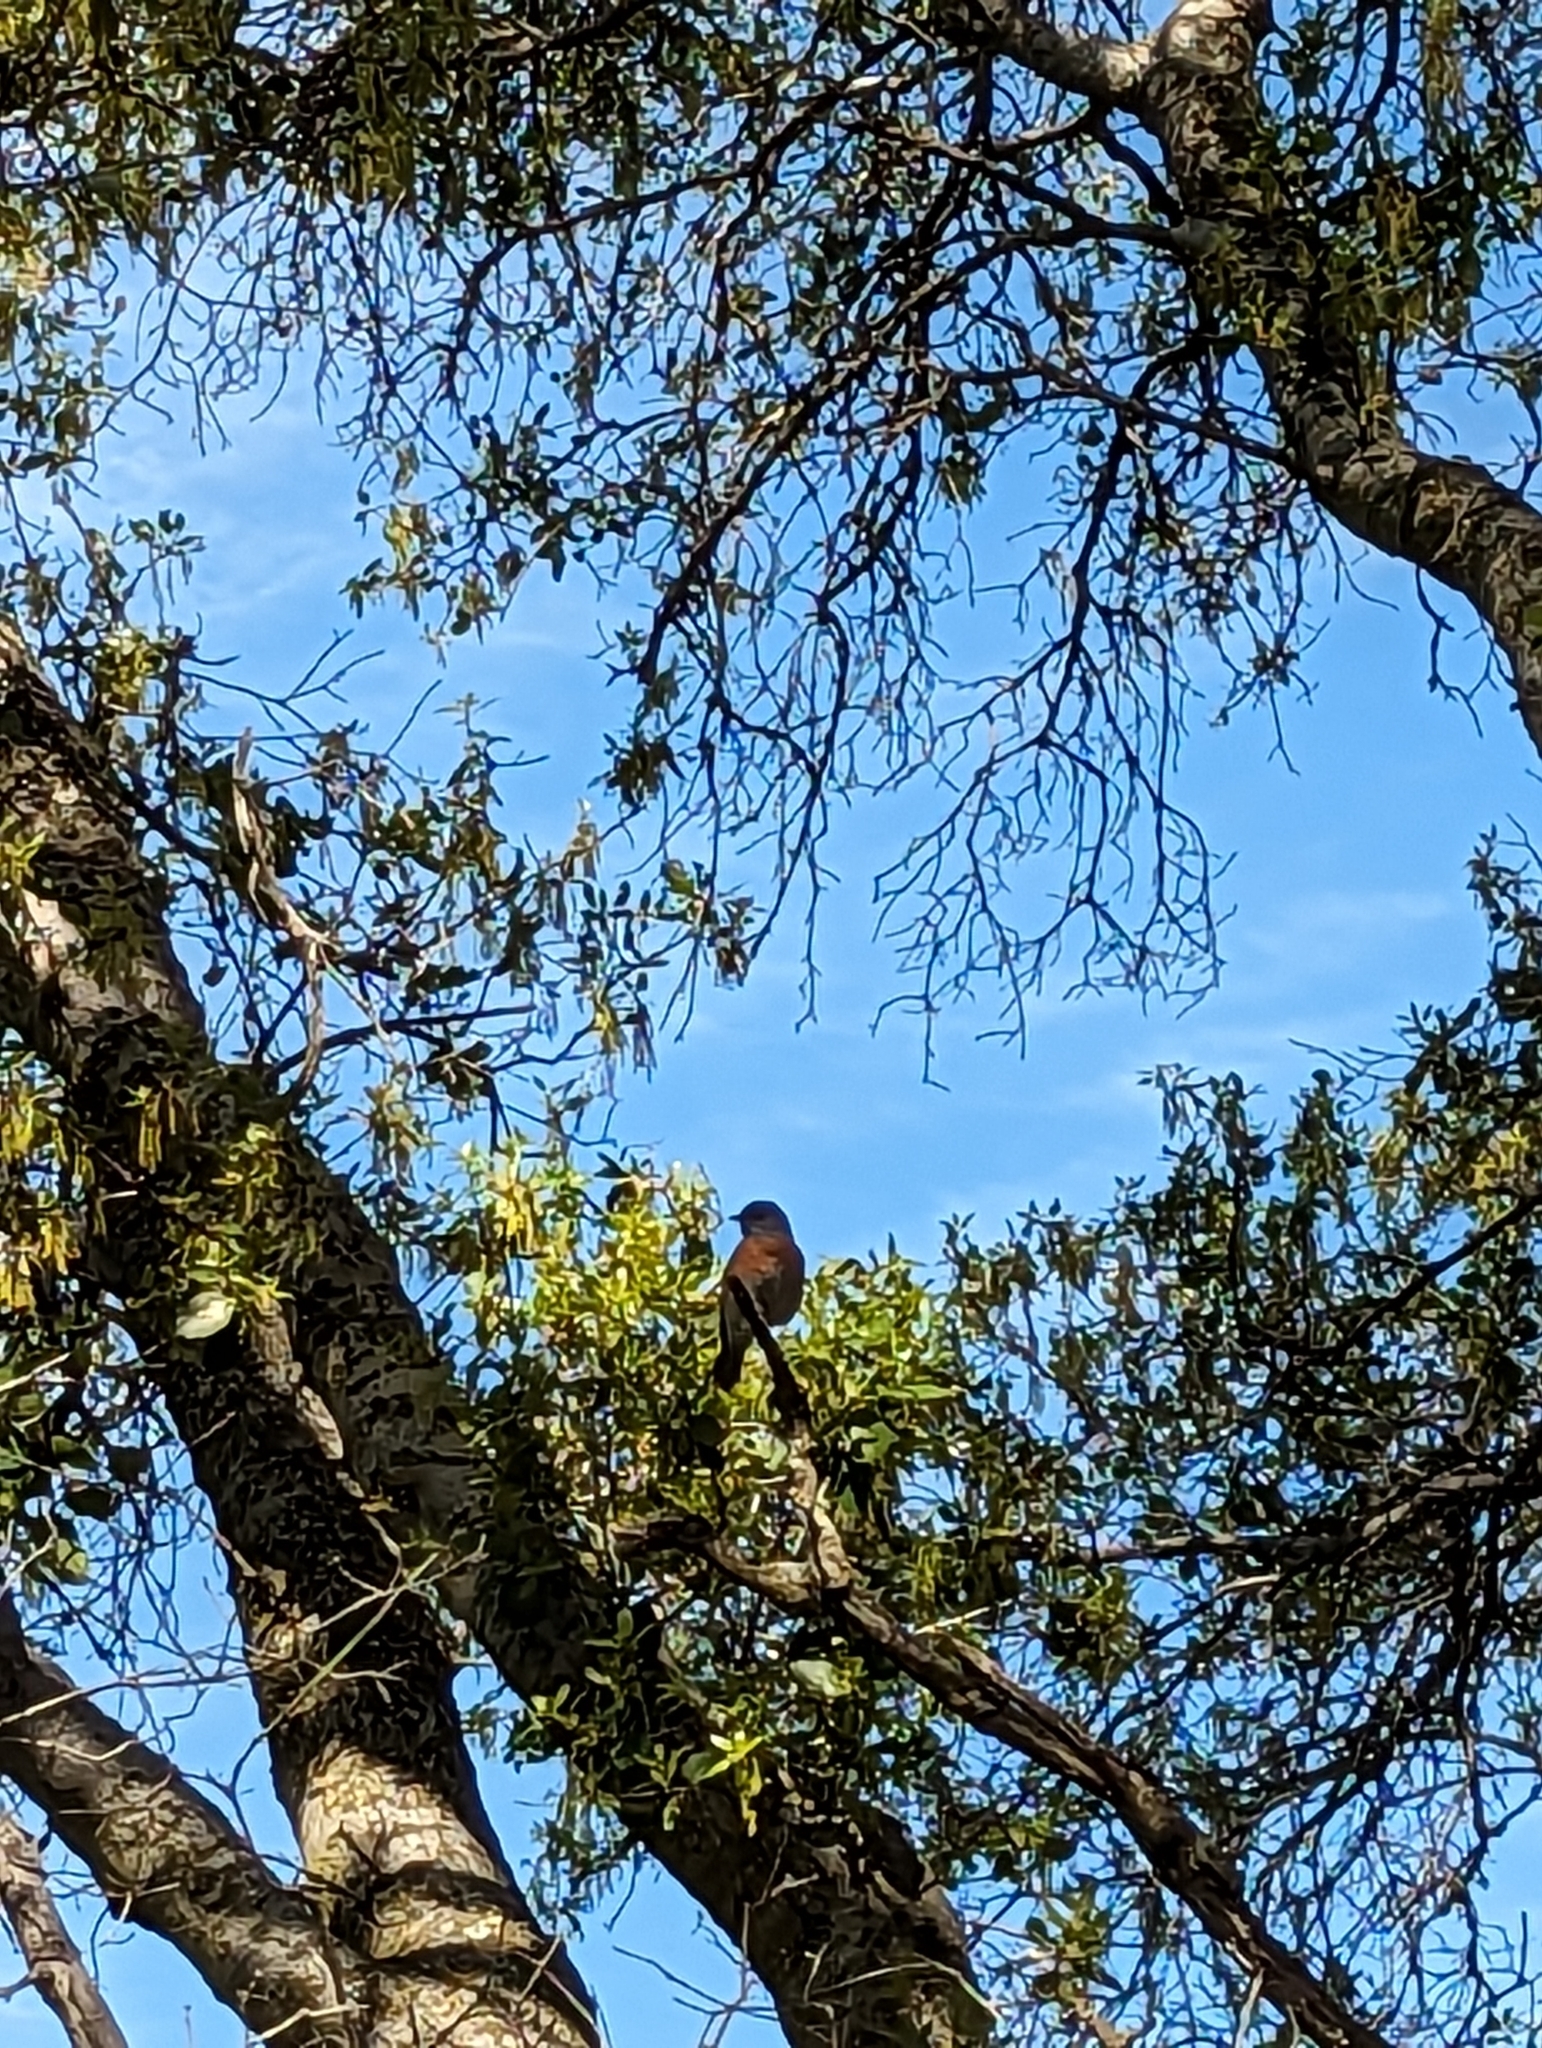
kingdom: Animalia
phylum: Chordata
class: Aves
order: Passeriformes
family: Turdidae
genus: Sialia
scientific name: Sialia mexicana
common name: Western bluebird
